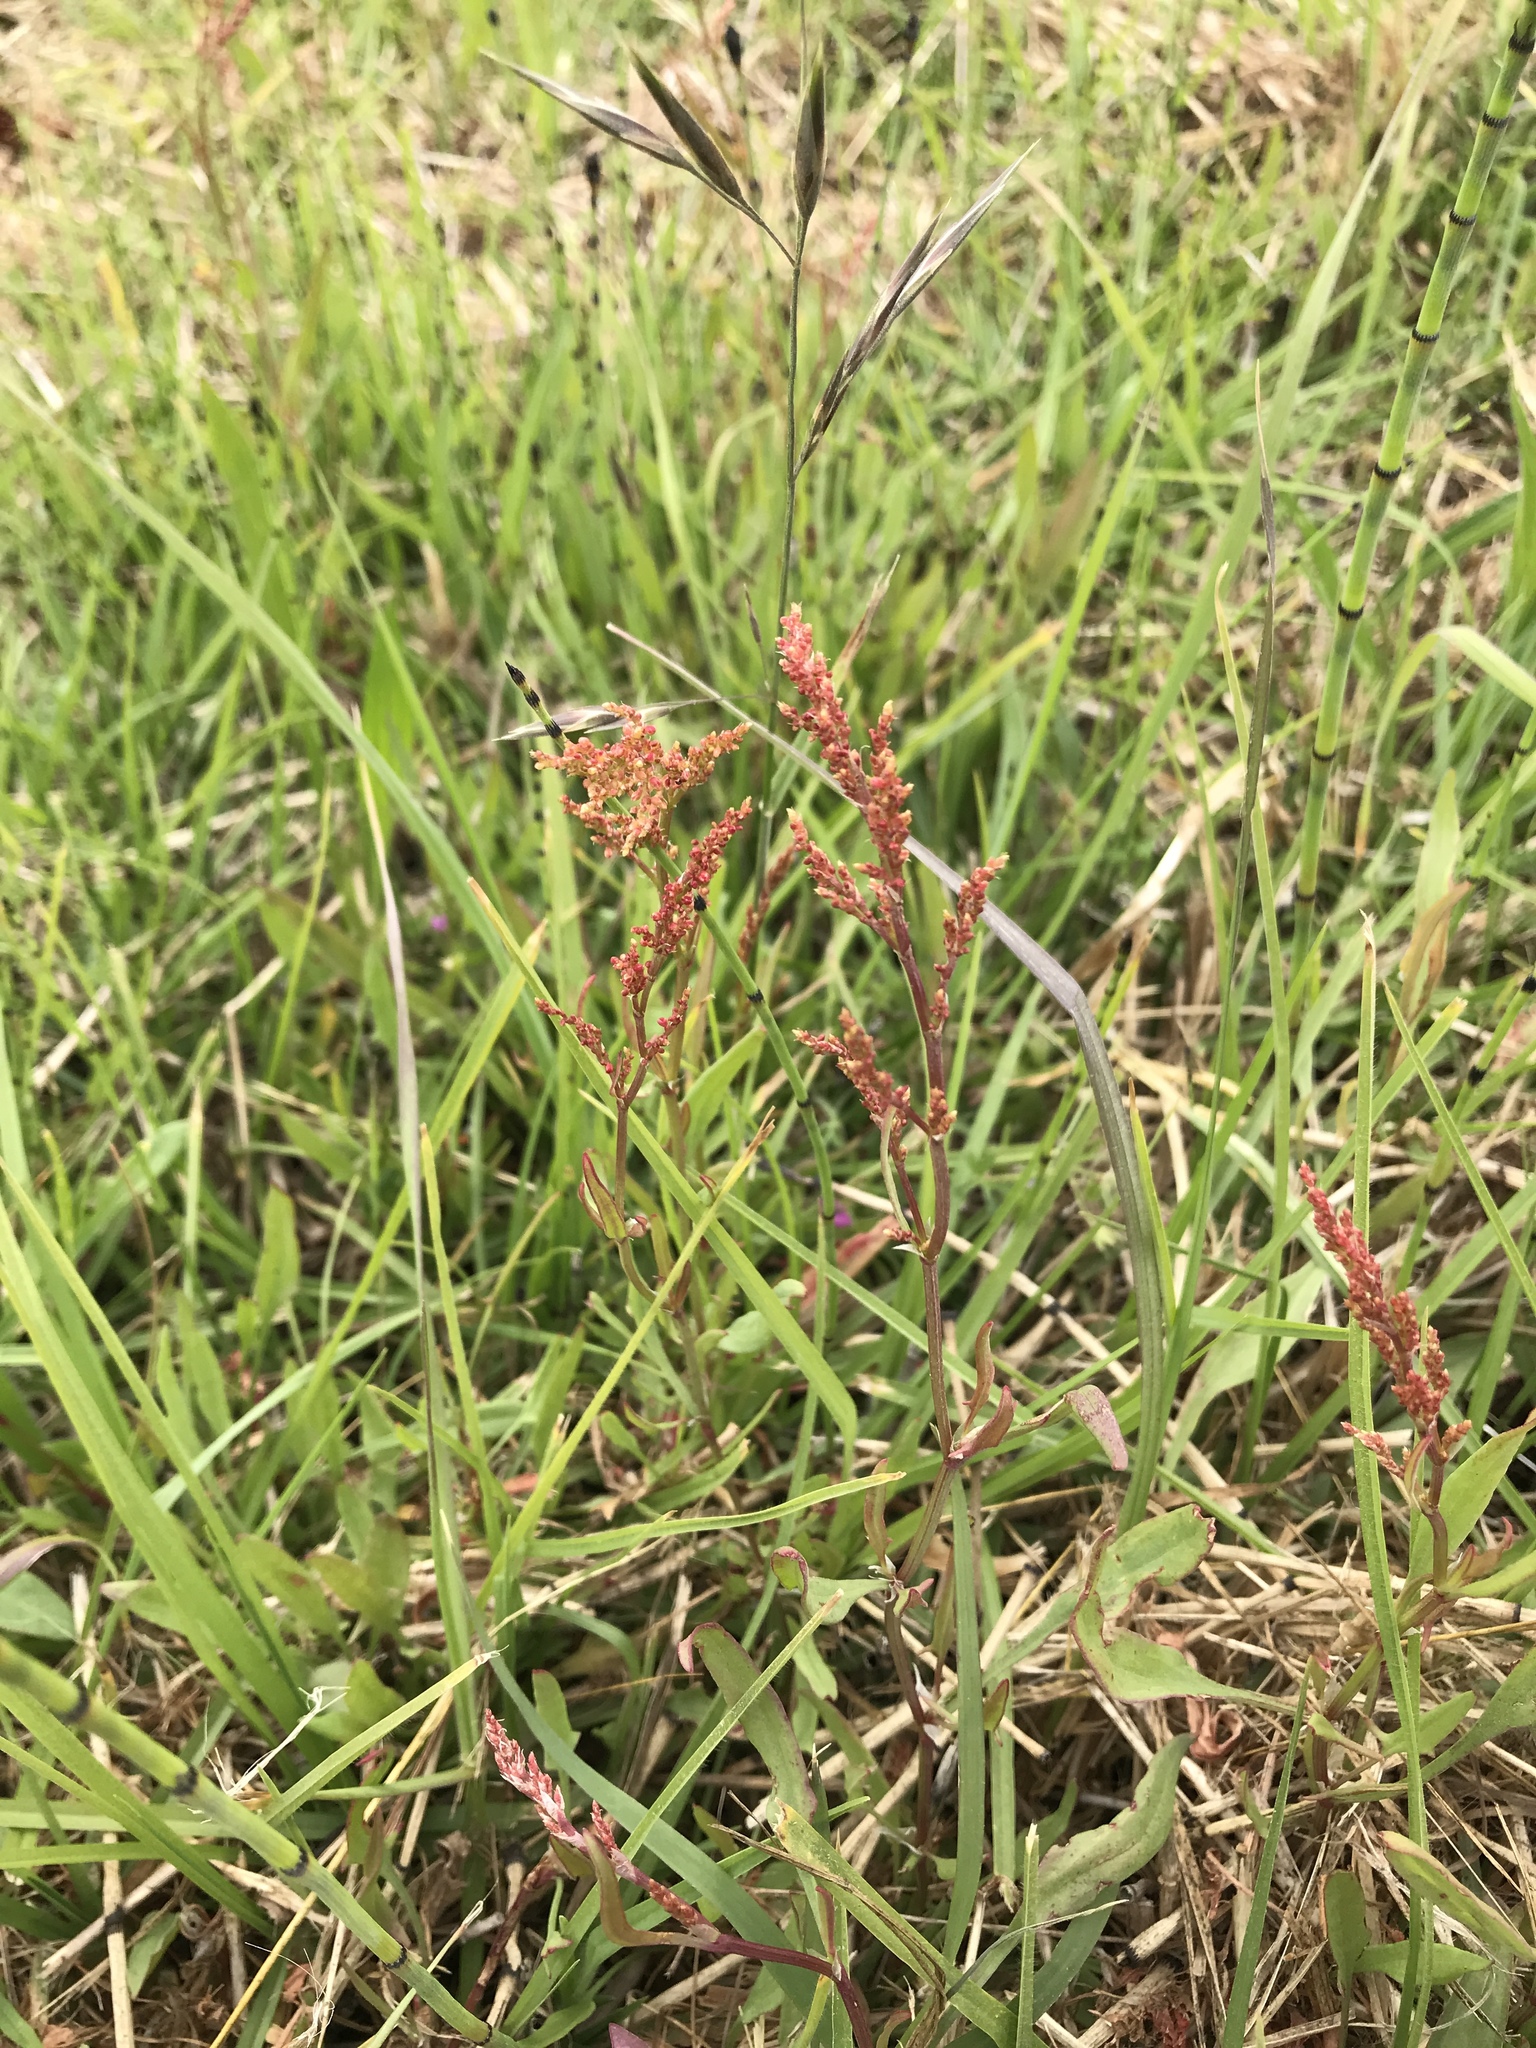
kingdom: Plantae
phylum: Tracheophyta
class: Magnoliopsida
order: Caryophyllales
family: Polygonaceae
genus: Rumex
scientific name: Rumex acetosella
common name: Common sheep sorrel
